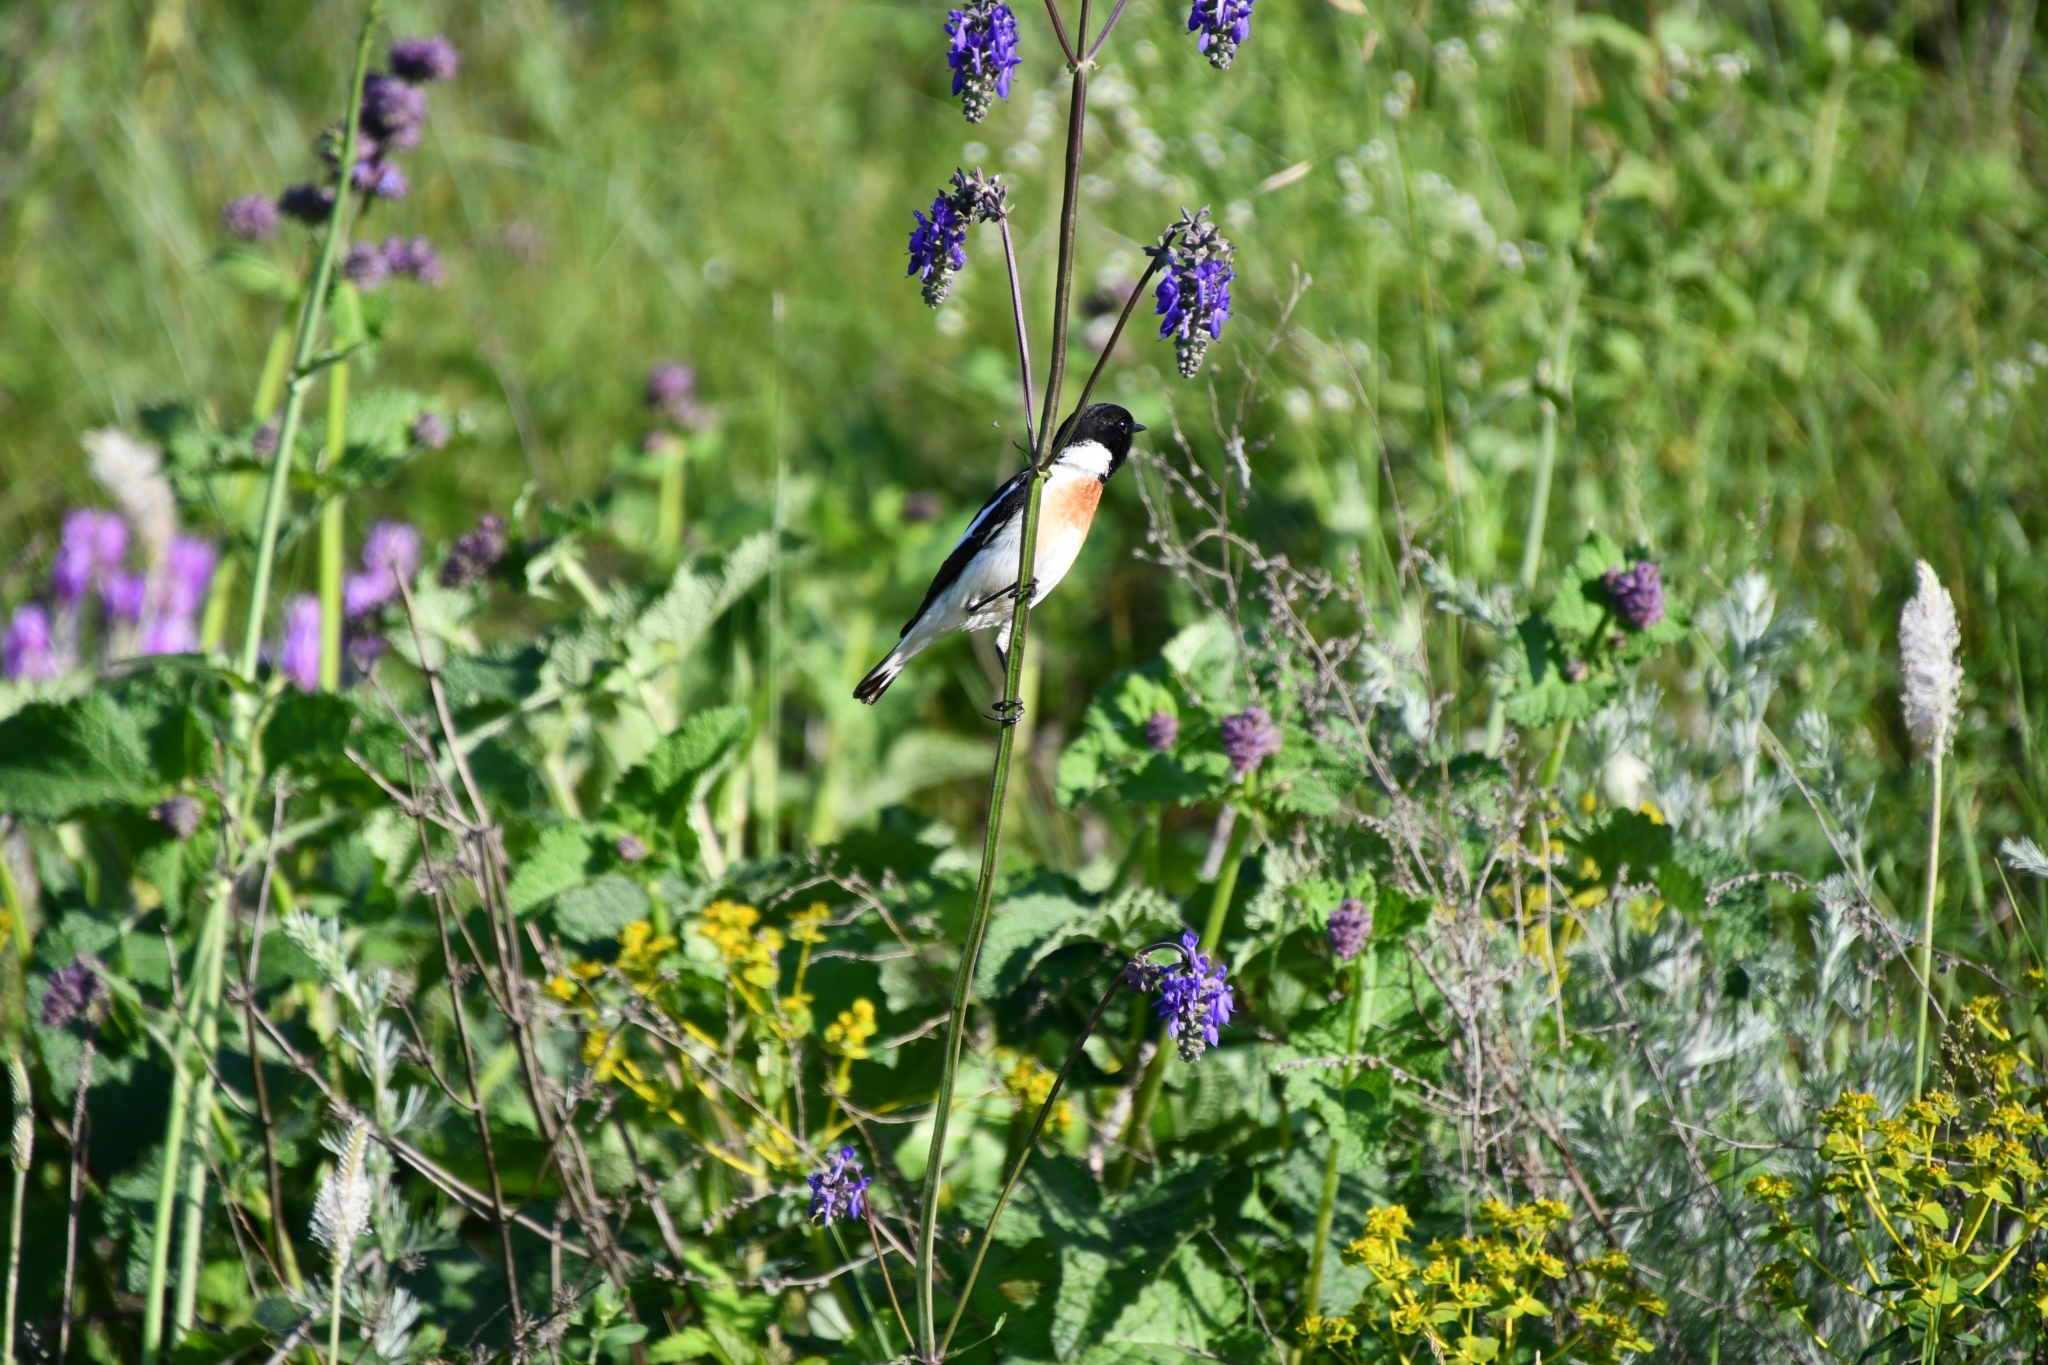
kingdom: Animalia
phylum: Chordata
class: Aves
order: Passeriformes
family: Muscicapidae
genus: Saxicola
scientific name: Saxicola maurus
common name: Siberian stonechat
